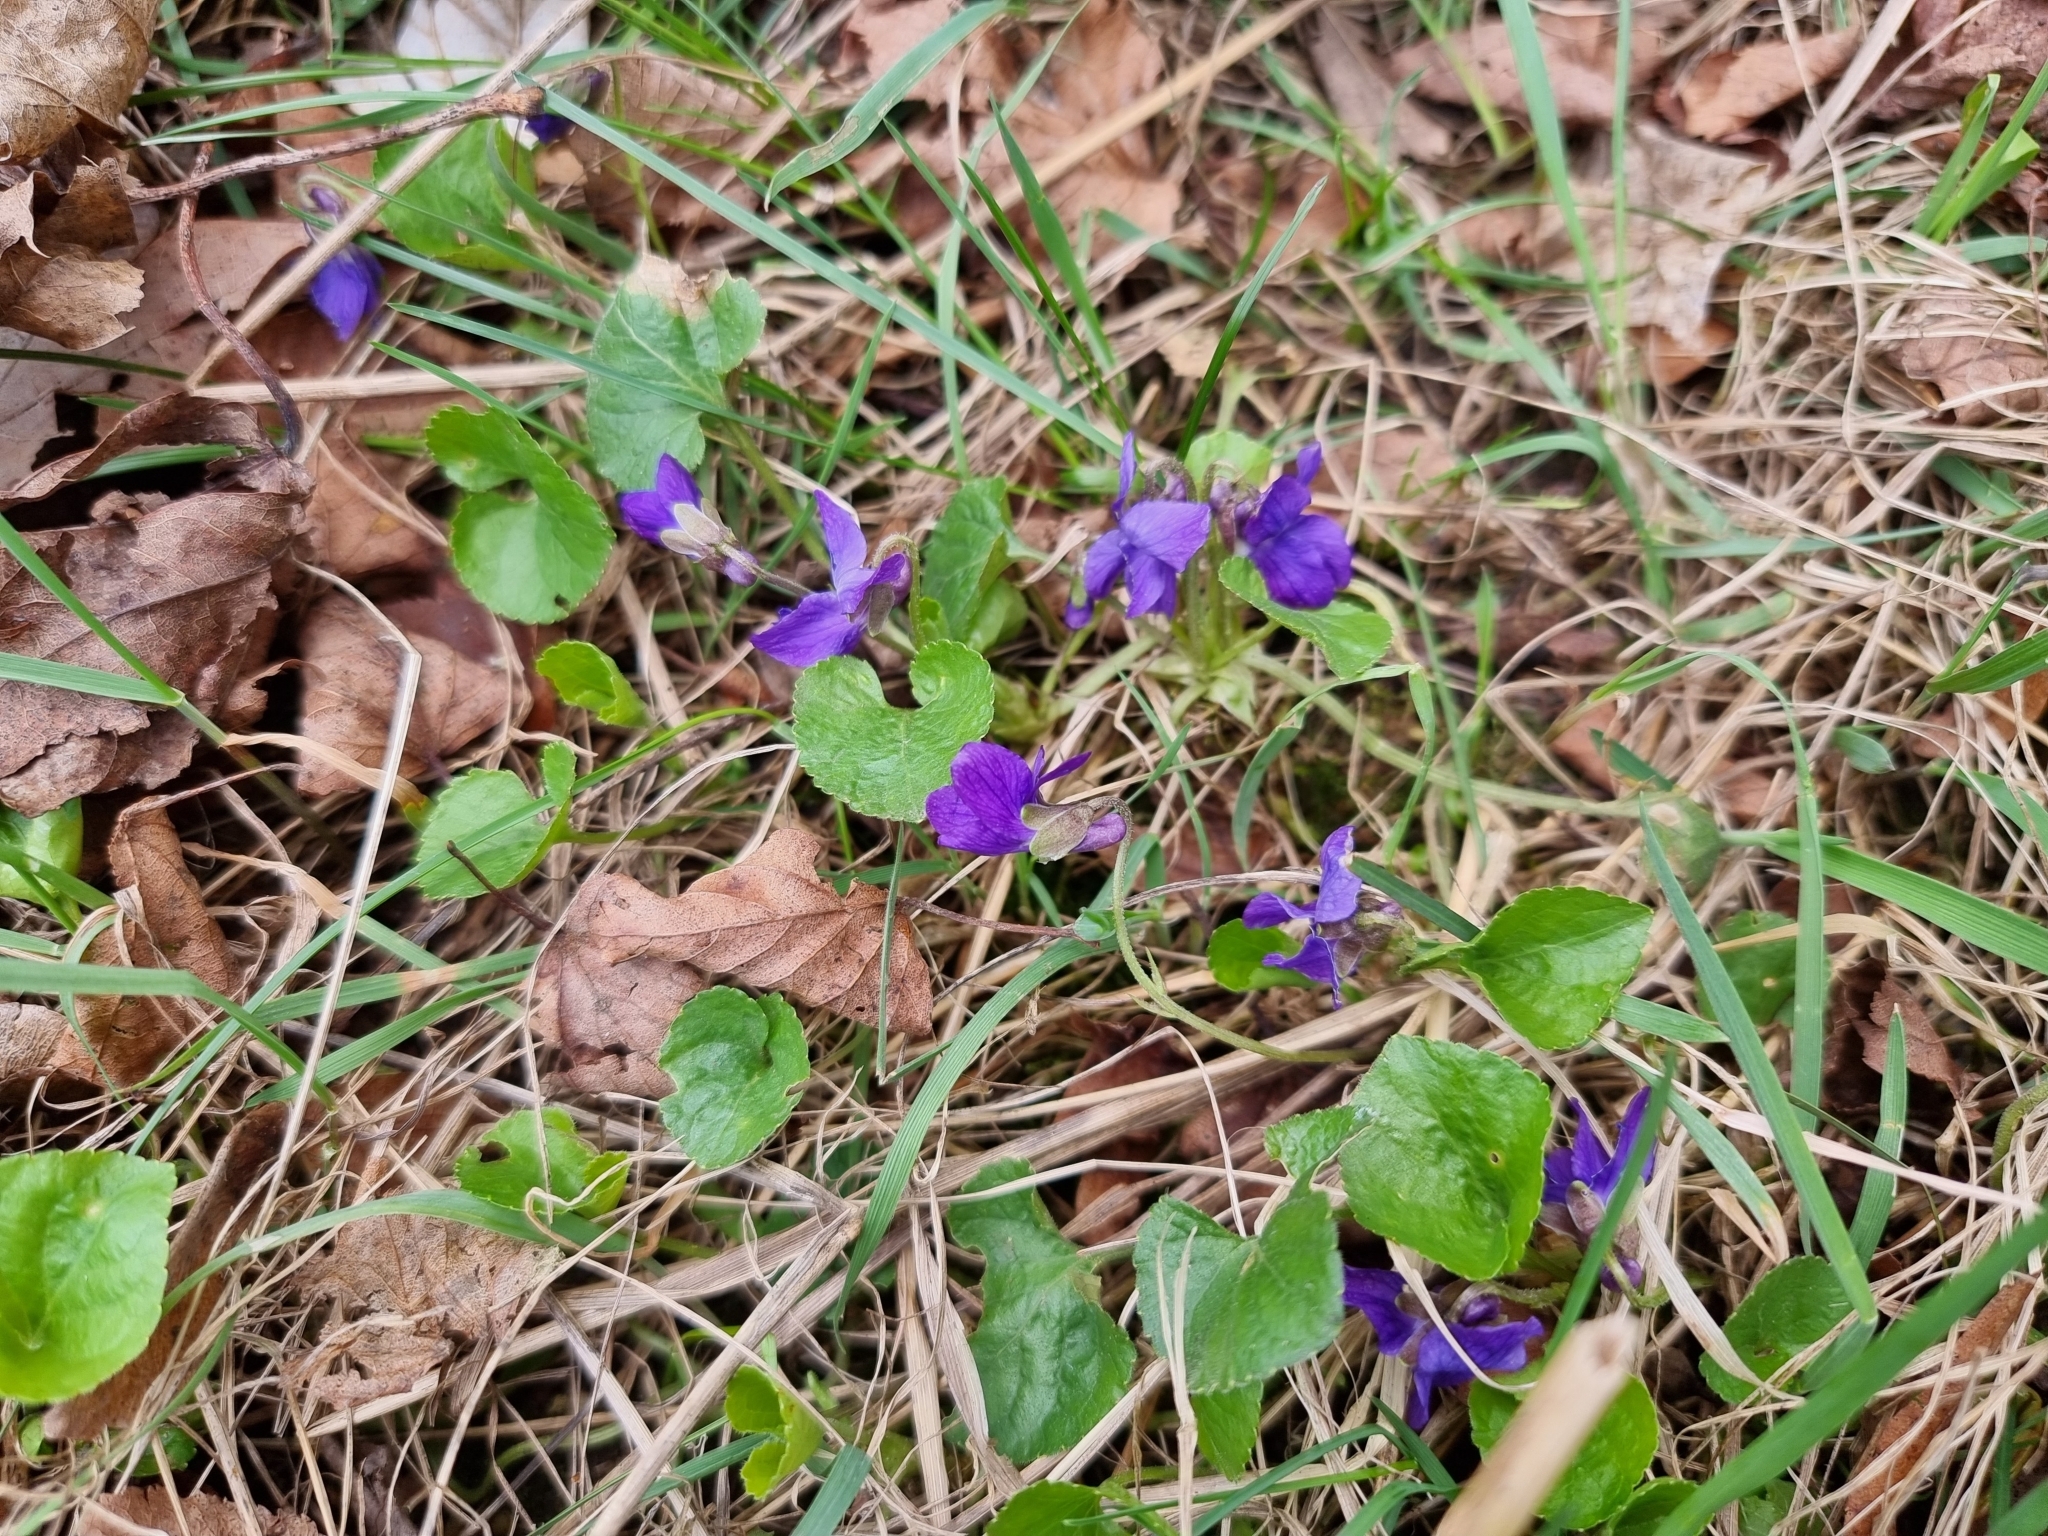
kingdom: Plantae
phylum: Tracheophyta
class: Magnoliopsida
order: Malpighiales
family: Violaceae
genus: Viola
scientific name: Viola odorata
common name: Sweet violet
